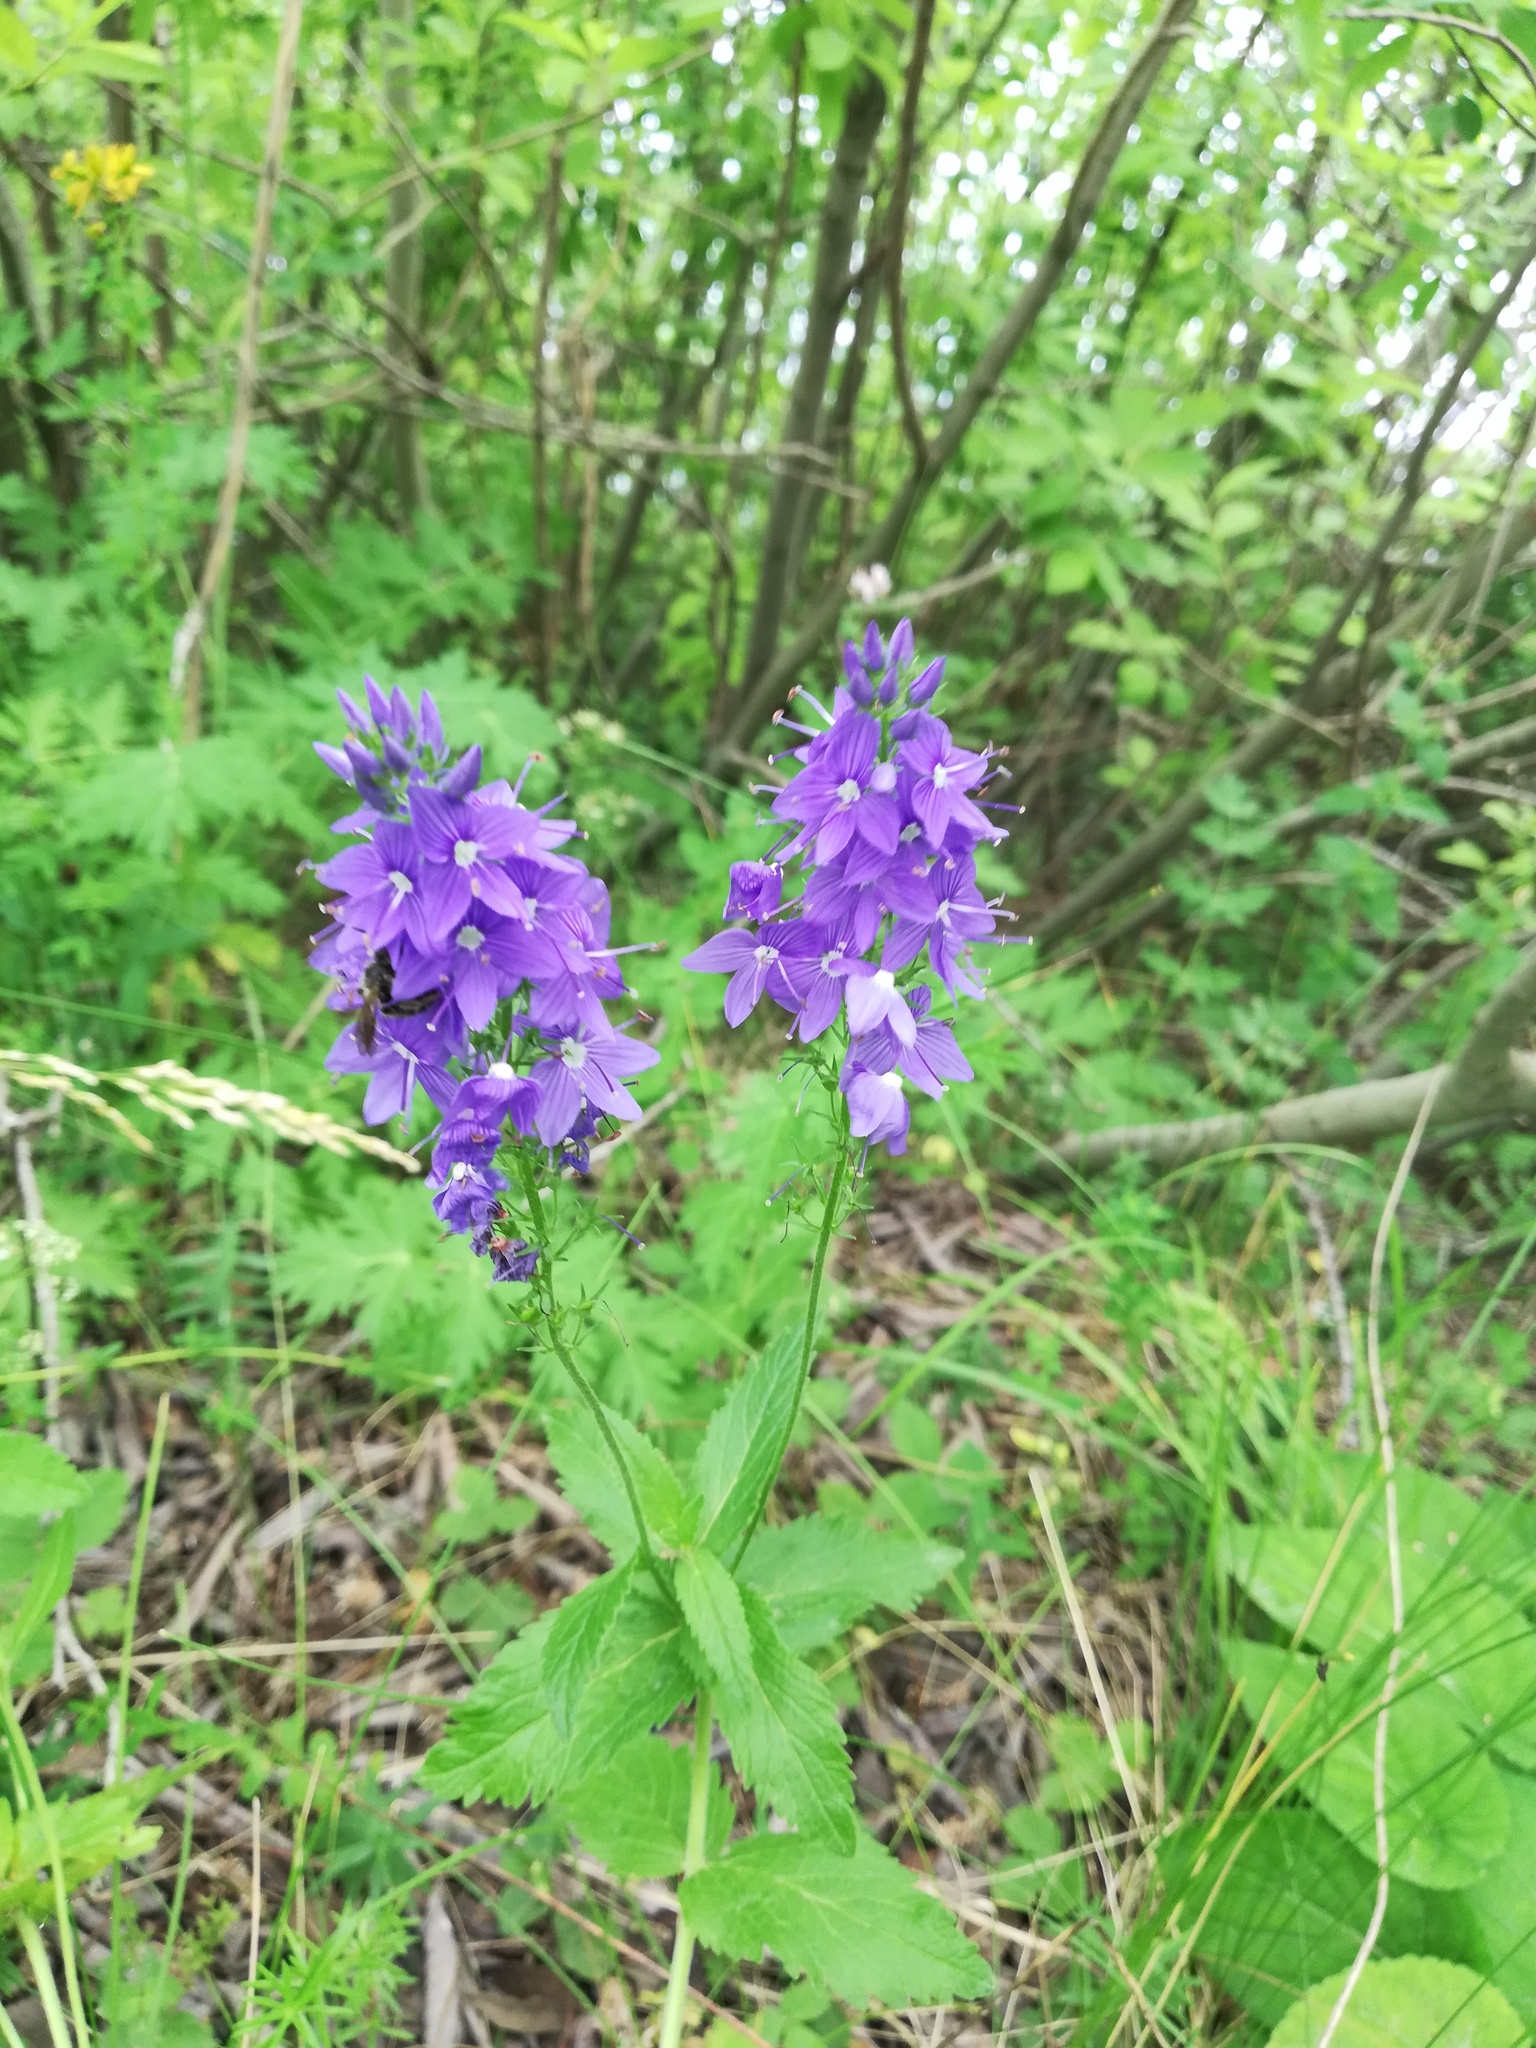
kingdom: Plantae
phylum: Tracheophyta
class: Magnoliopsida
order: Lamiales
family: Plantaginaceae
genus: Veronica
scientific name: Veronica teucrium
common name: Large speedwell
